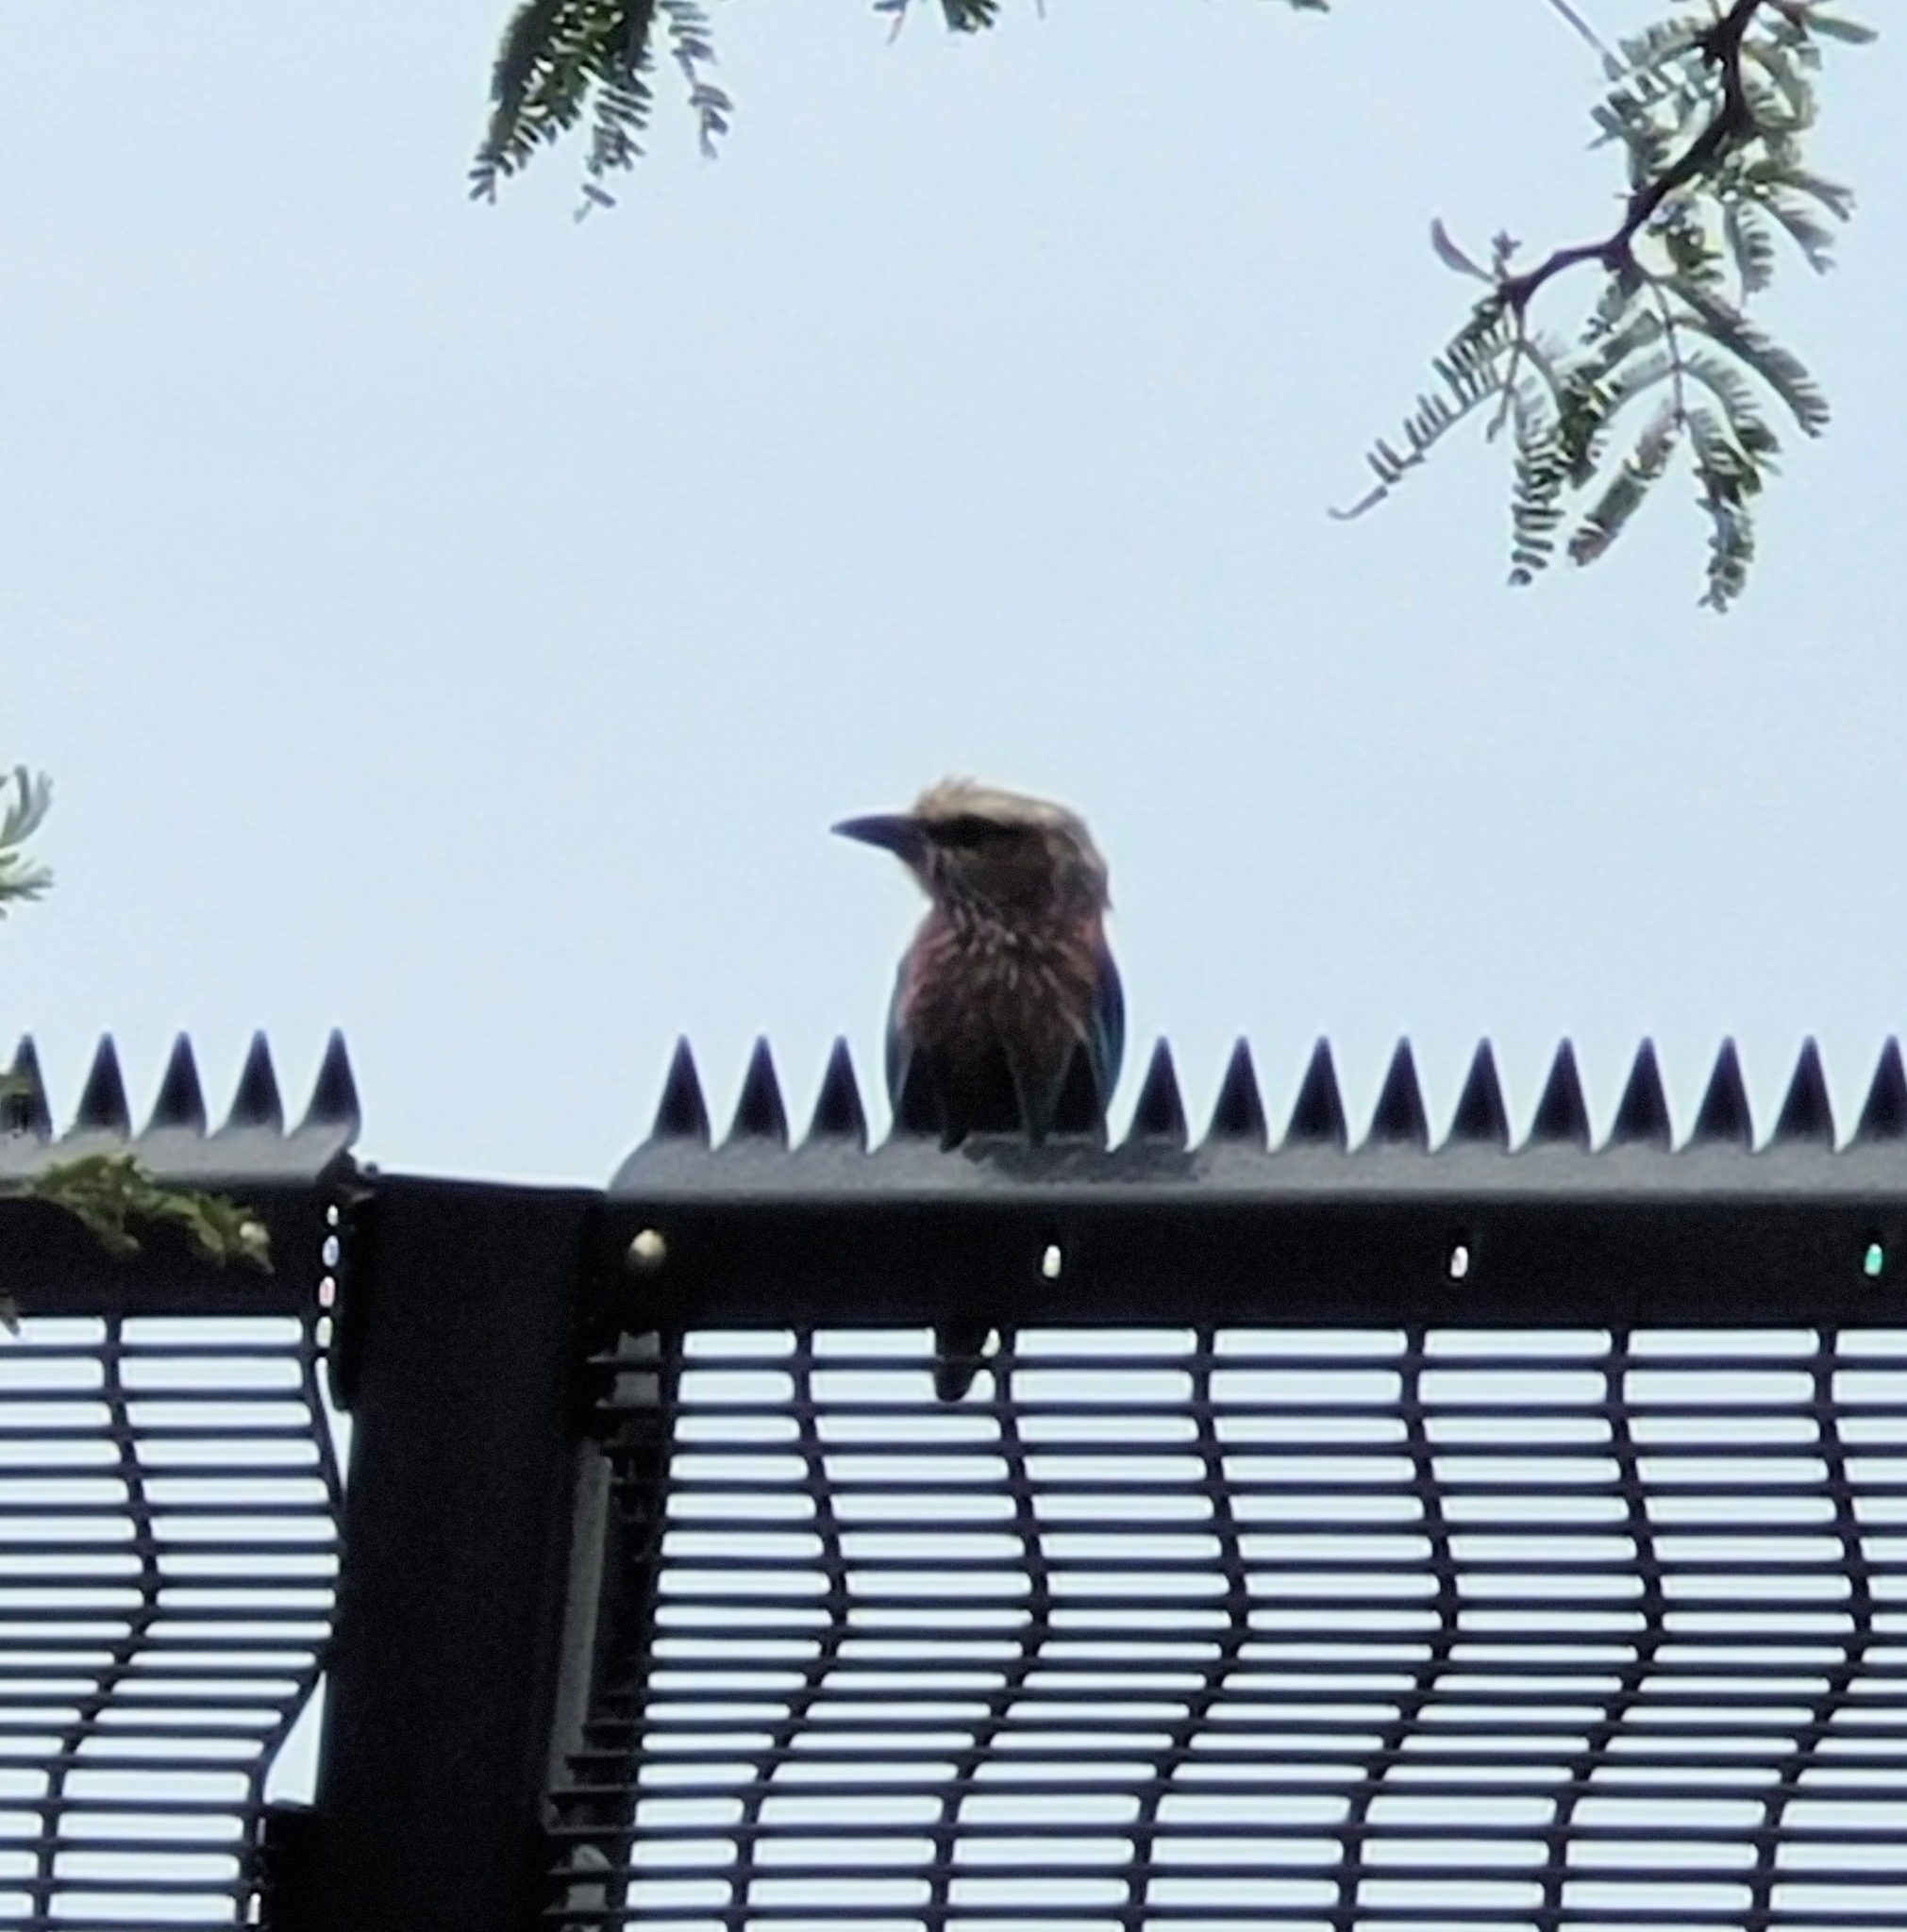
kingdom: Animalia
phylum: Chordata
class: Aves
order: Coraciiformes
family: Coraciidae
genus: Coracias
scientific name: Coracias caudatus
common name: Lilac-breasted roller
